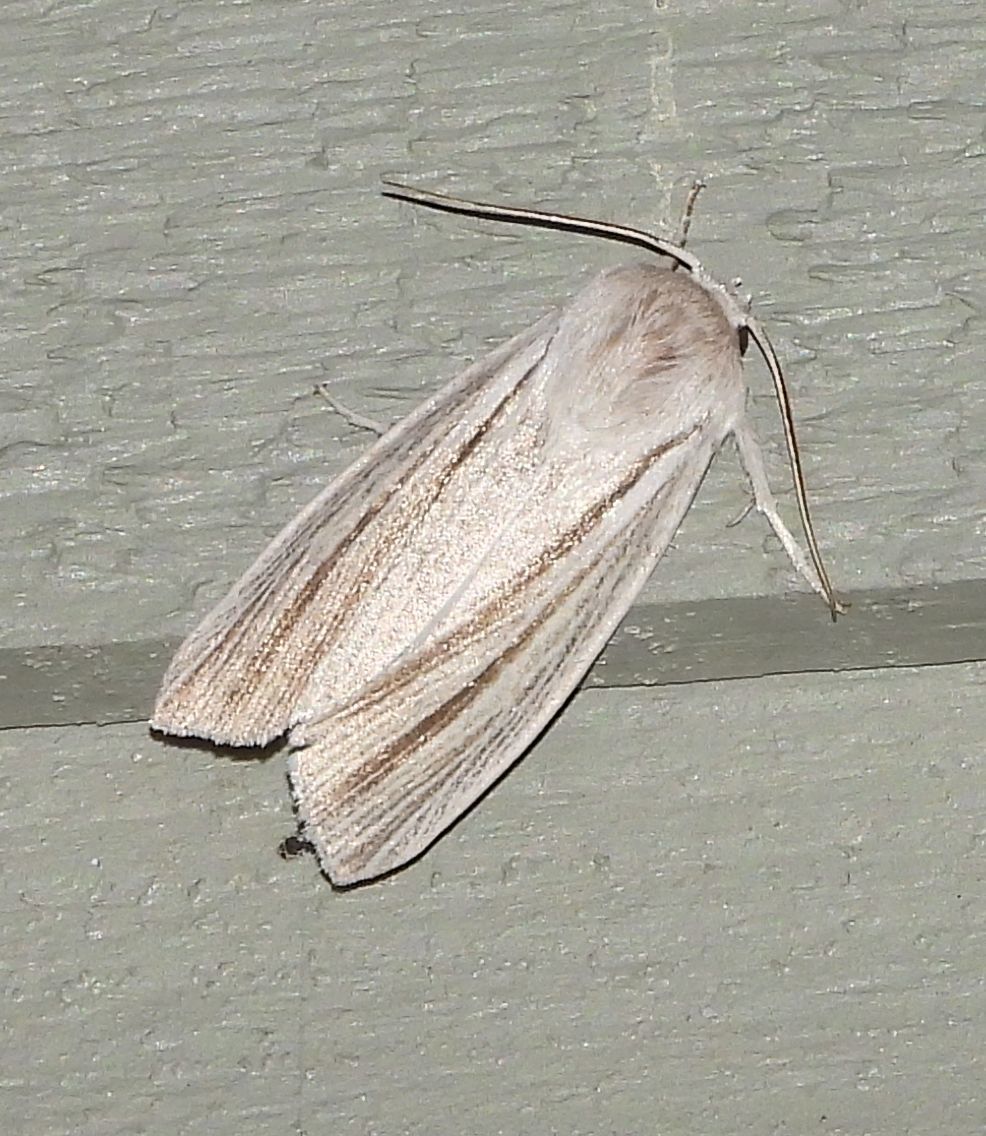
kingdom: Animalia
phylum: Arthropoda
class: Insecta
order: Lepidoptera
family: Noctuidae
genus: Acronicta
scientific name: Acronicta insularis
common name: Henry's marsh moth
